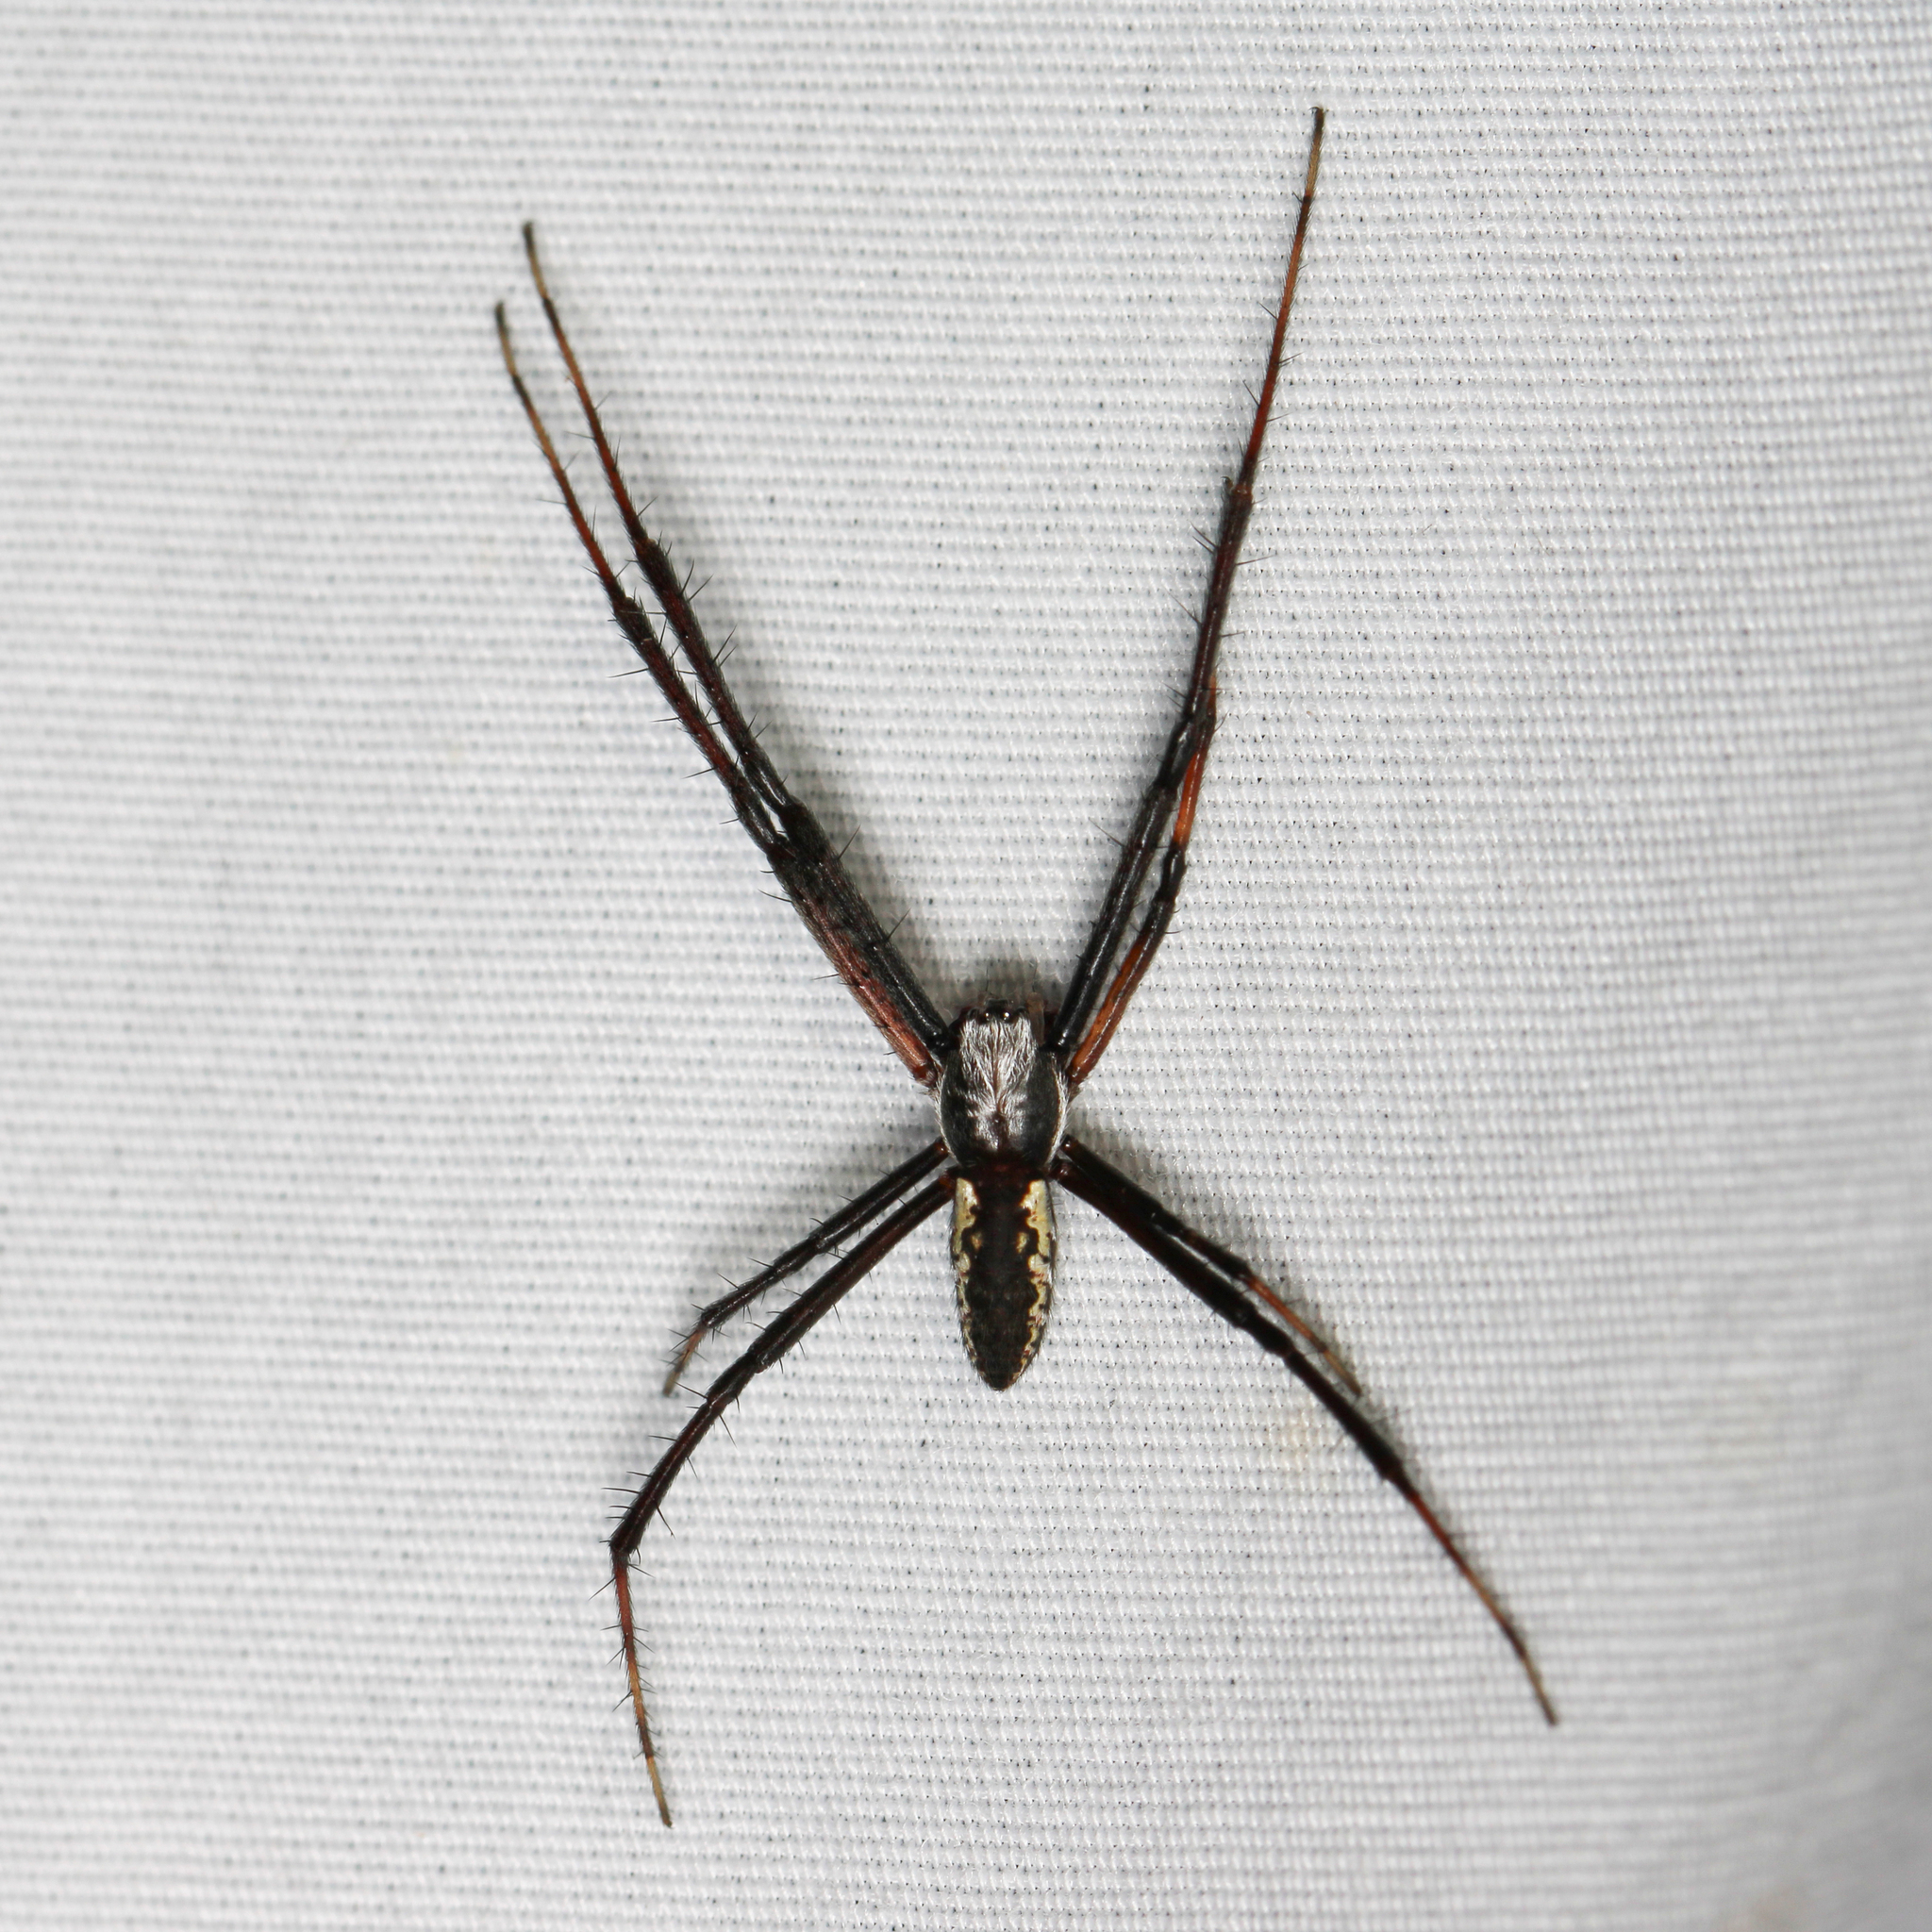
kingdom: Animalia
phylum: Arthropoda
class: Arachnida
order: Araneae
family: Araneidae
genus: Argiope
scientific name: Argiope aurantia
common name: Orb weavers
